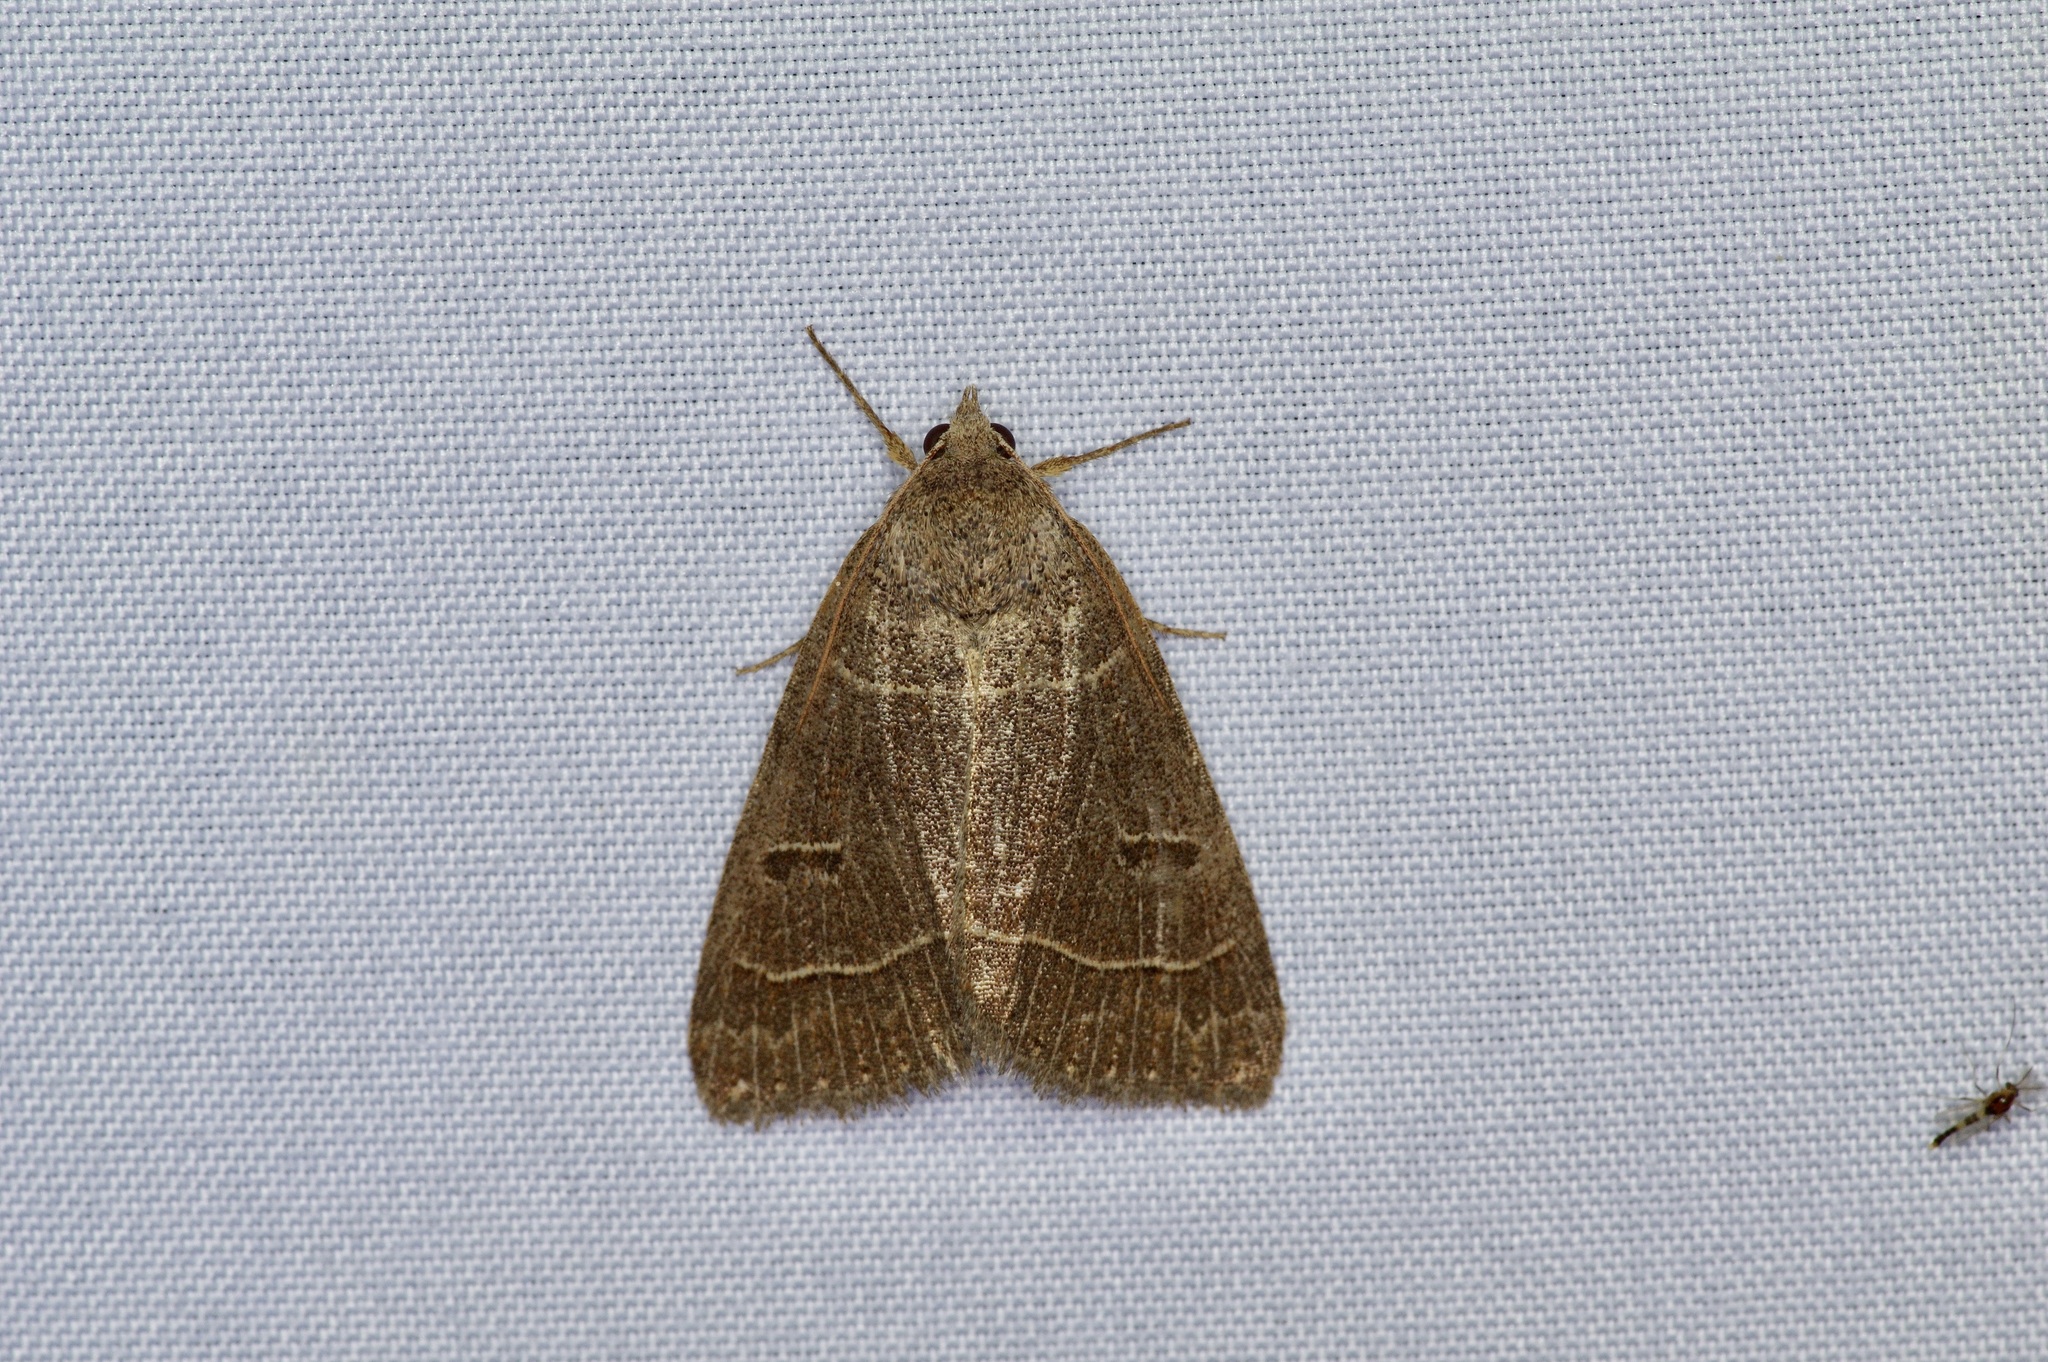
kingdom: Animalia
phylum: Arthropoda
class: Insecta
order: Lepidoptera
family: Erebidae
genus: Phoberia
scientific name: Phoberia atomaris
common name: Common oak moth
